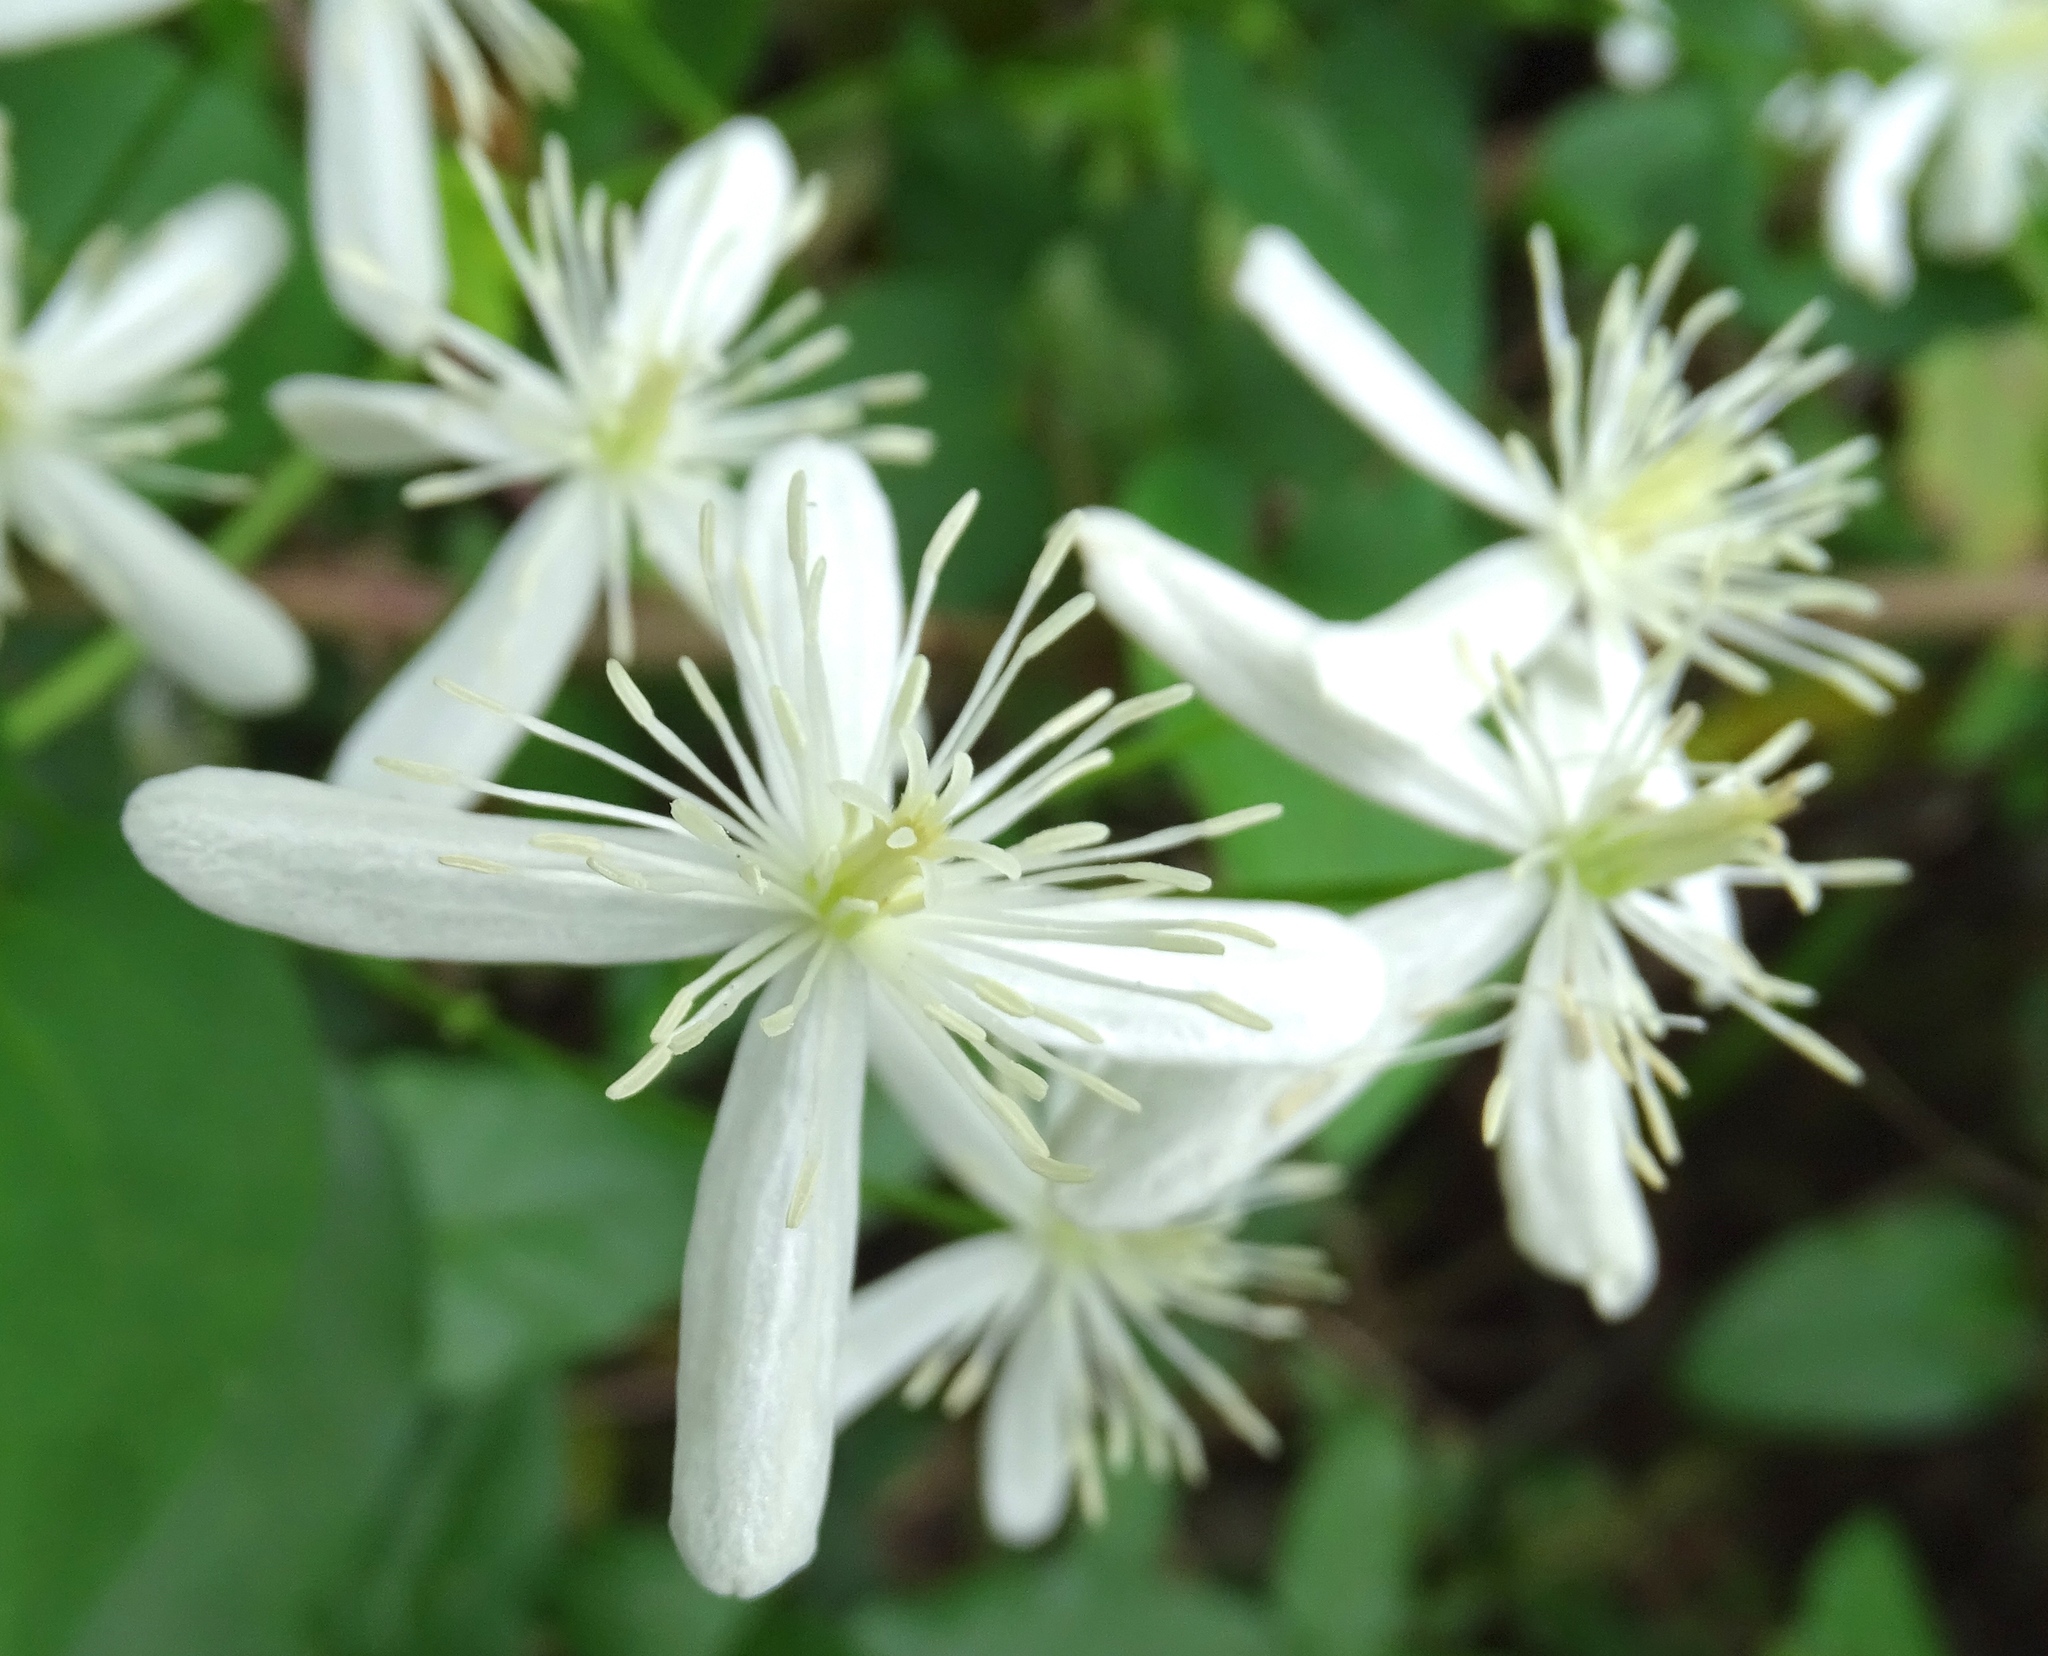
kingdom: Plantae
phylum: Tracheophyta
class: Magnoliopsida
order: Ranunculales
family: Ranunculaceae
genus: Clematis
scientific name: Clematis terniflora
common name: Sweet autumn clematis
